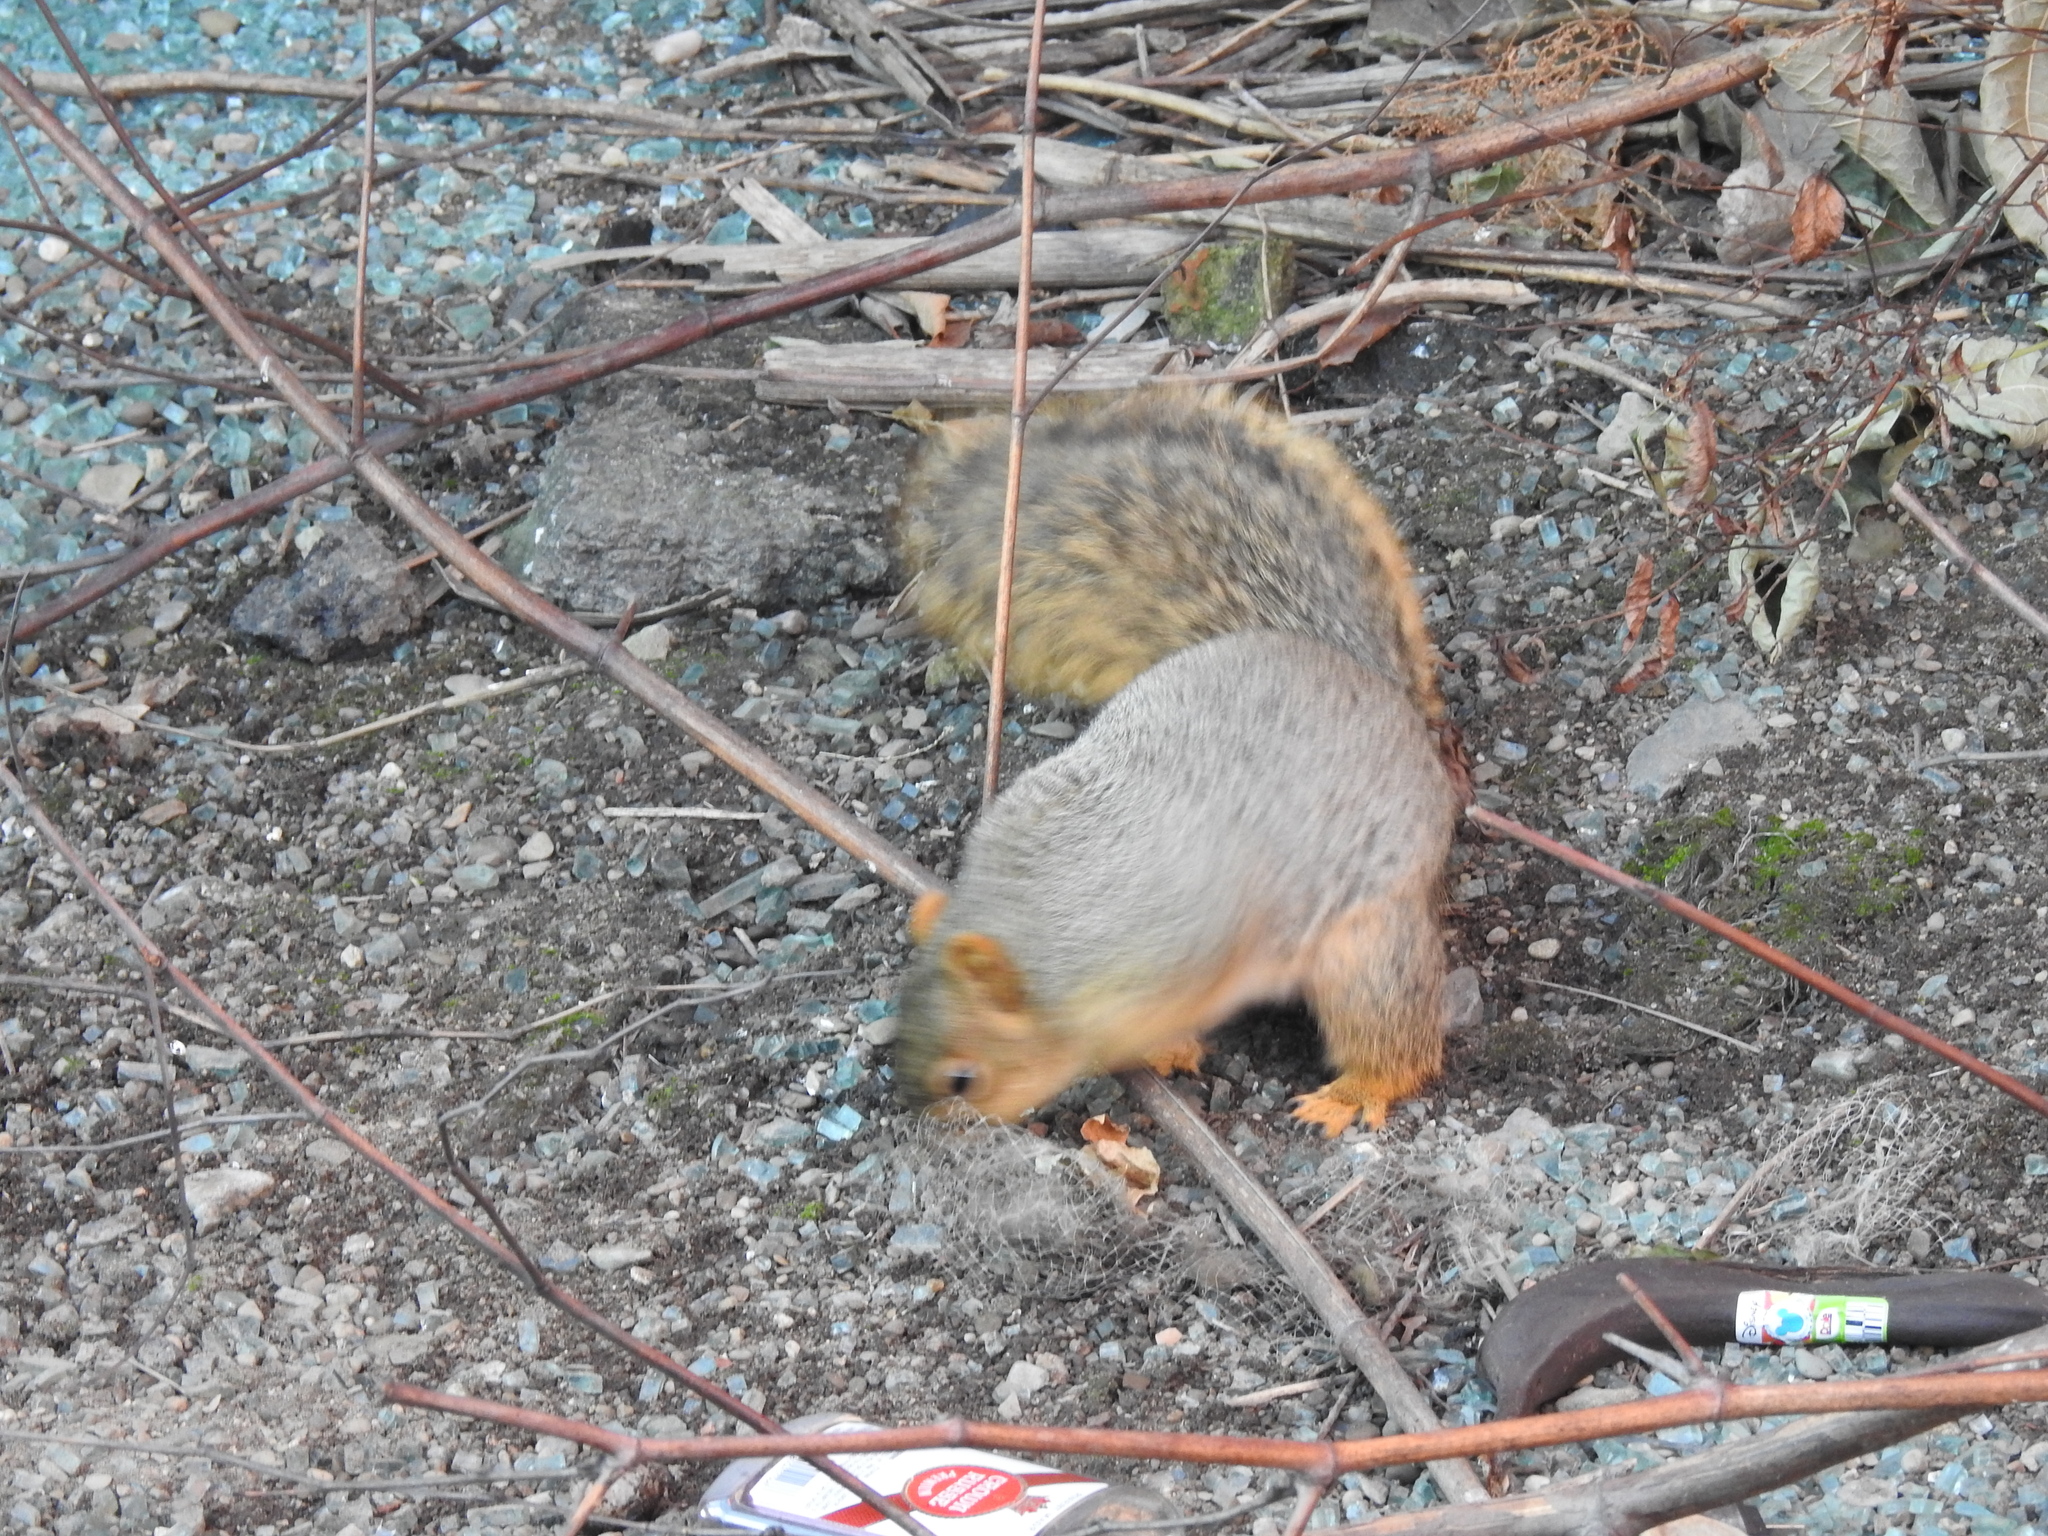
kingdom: Animalia
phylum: Chordata
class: Mammalia
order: Rodentia
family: Sciuridae
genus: Sciurus
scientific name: Sciurus niger
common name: Fox squirrel
